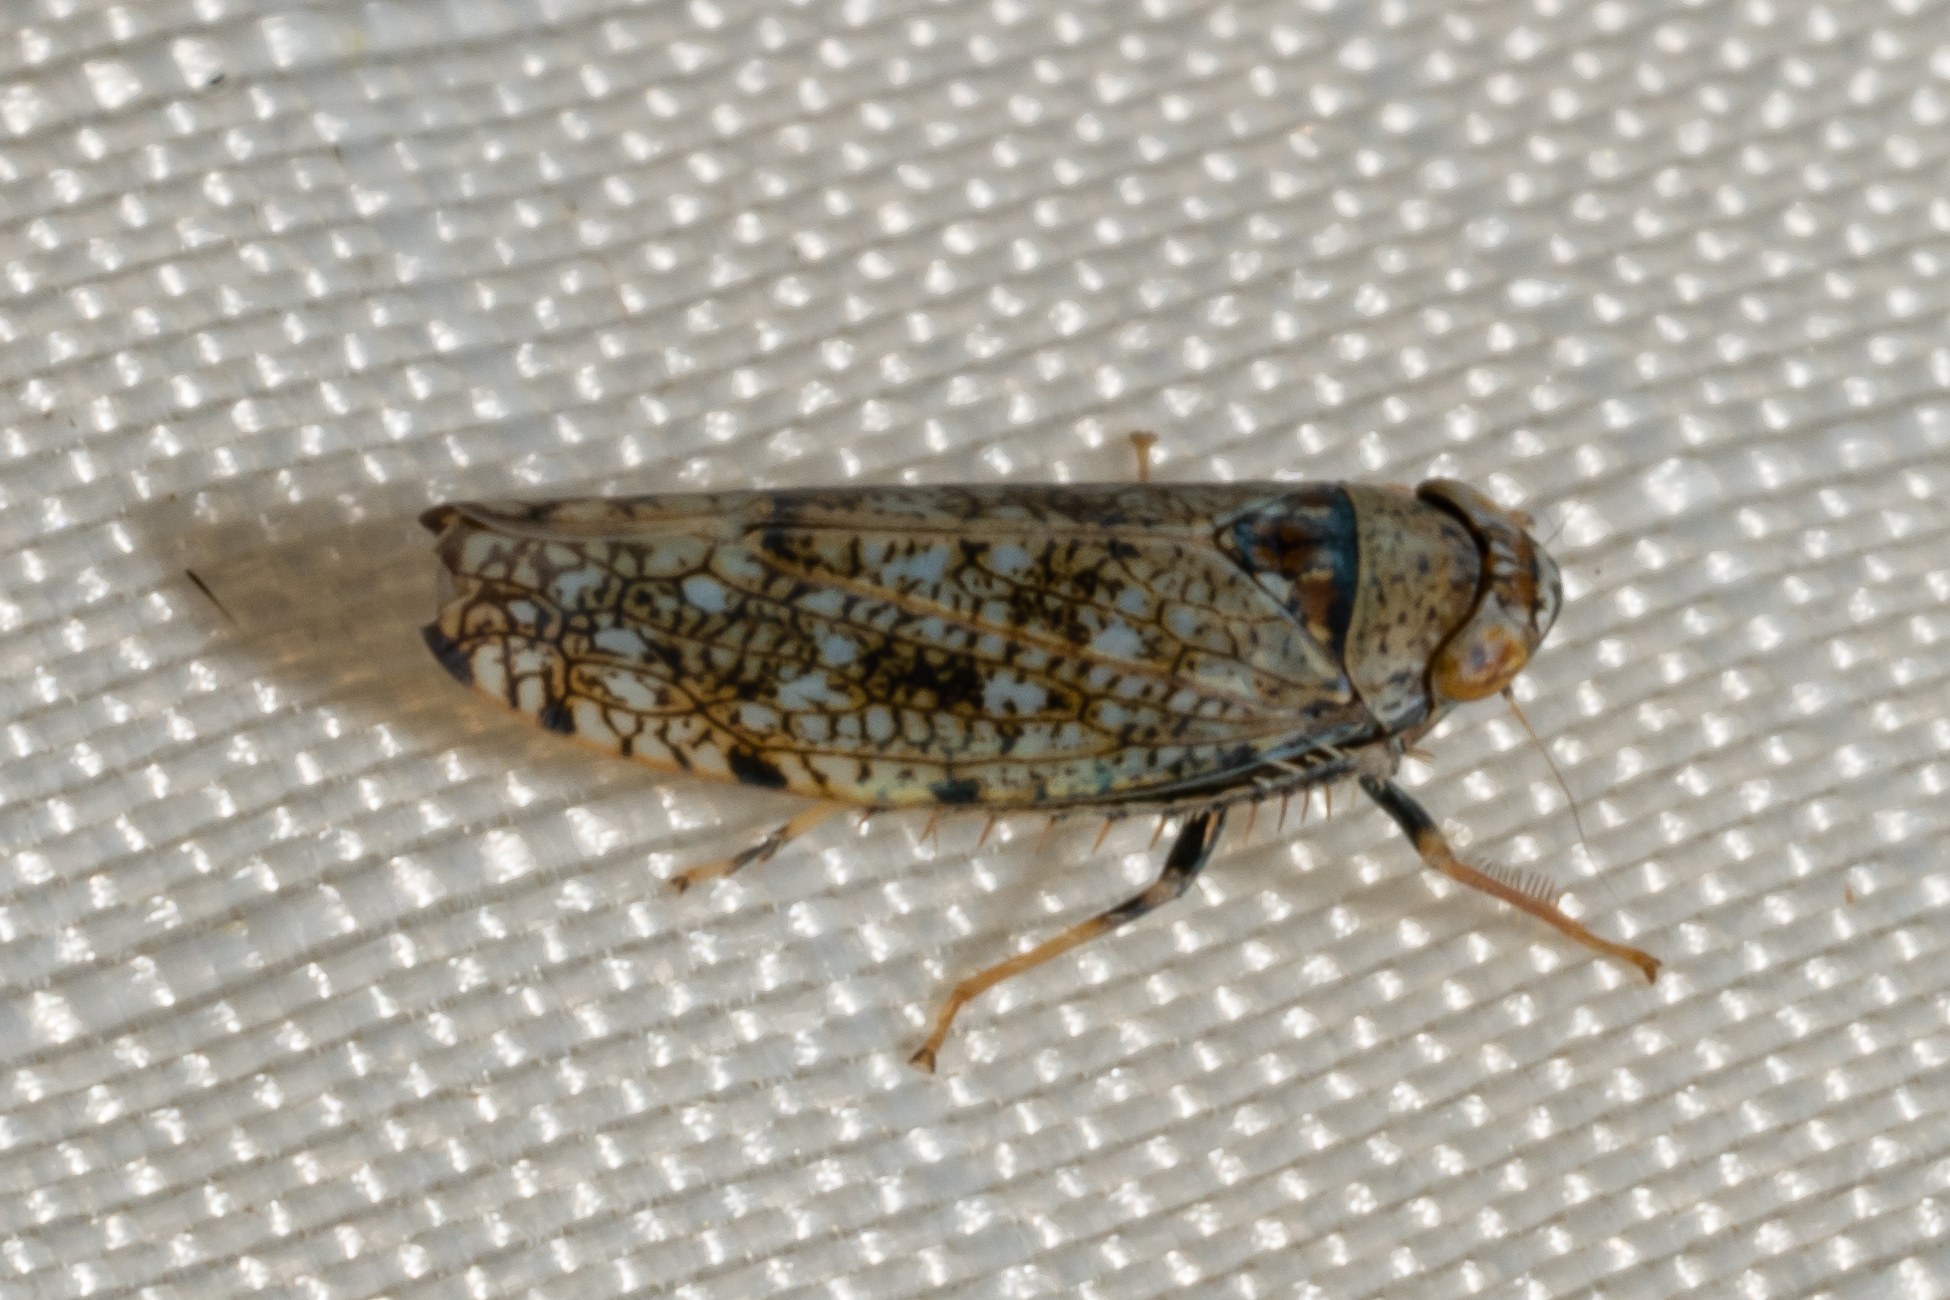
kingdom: Animalia
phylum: Arthropoda
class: Insecta
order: Hemiptera
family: Cicadellidae
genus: Orientus
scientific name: Orientus ishidae
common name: Japanese leafhopper
